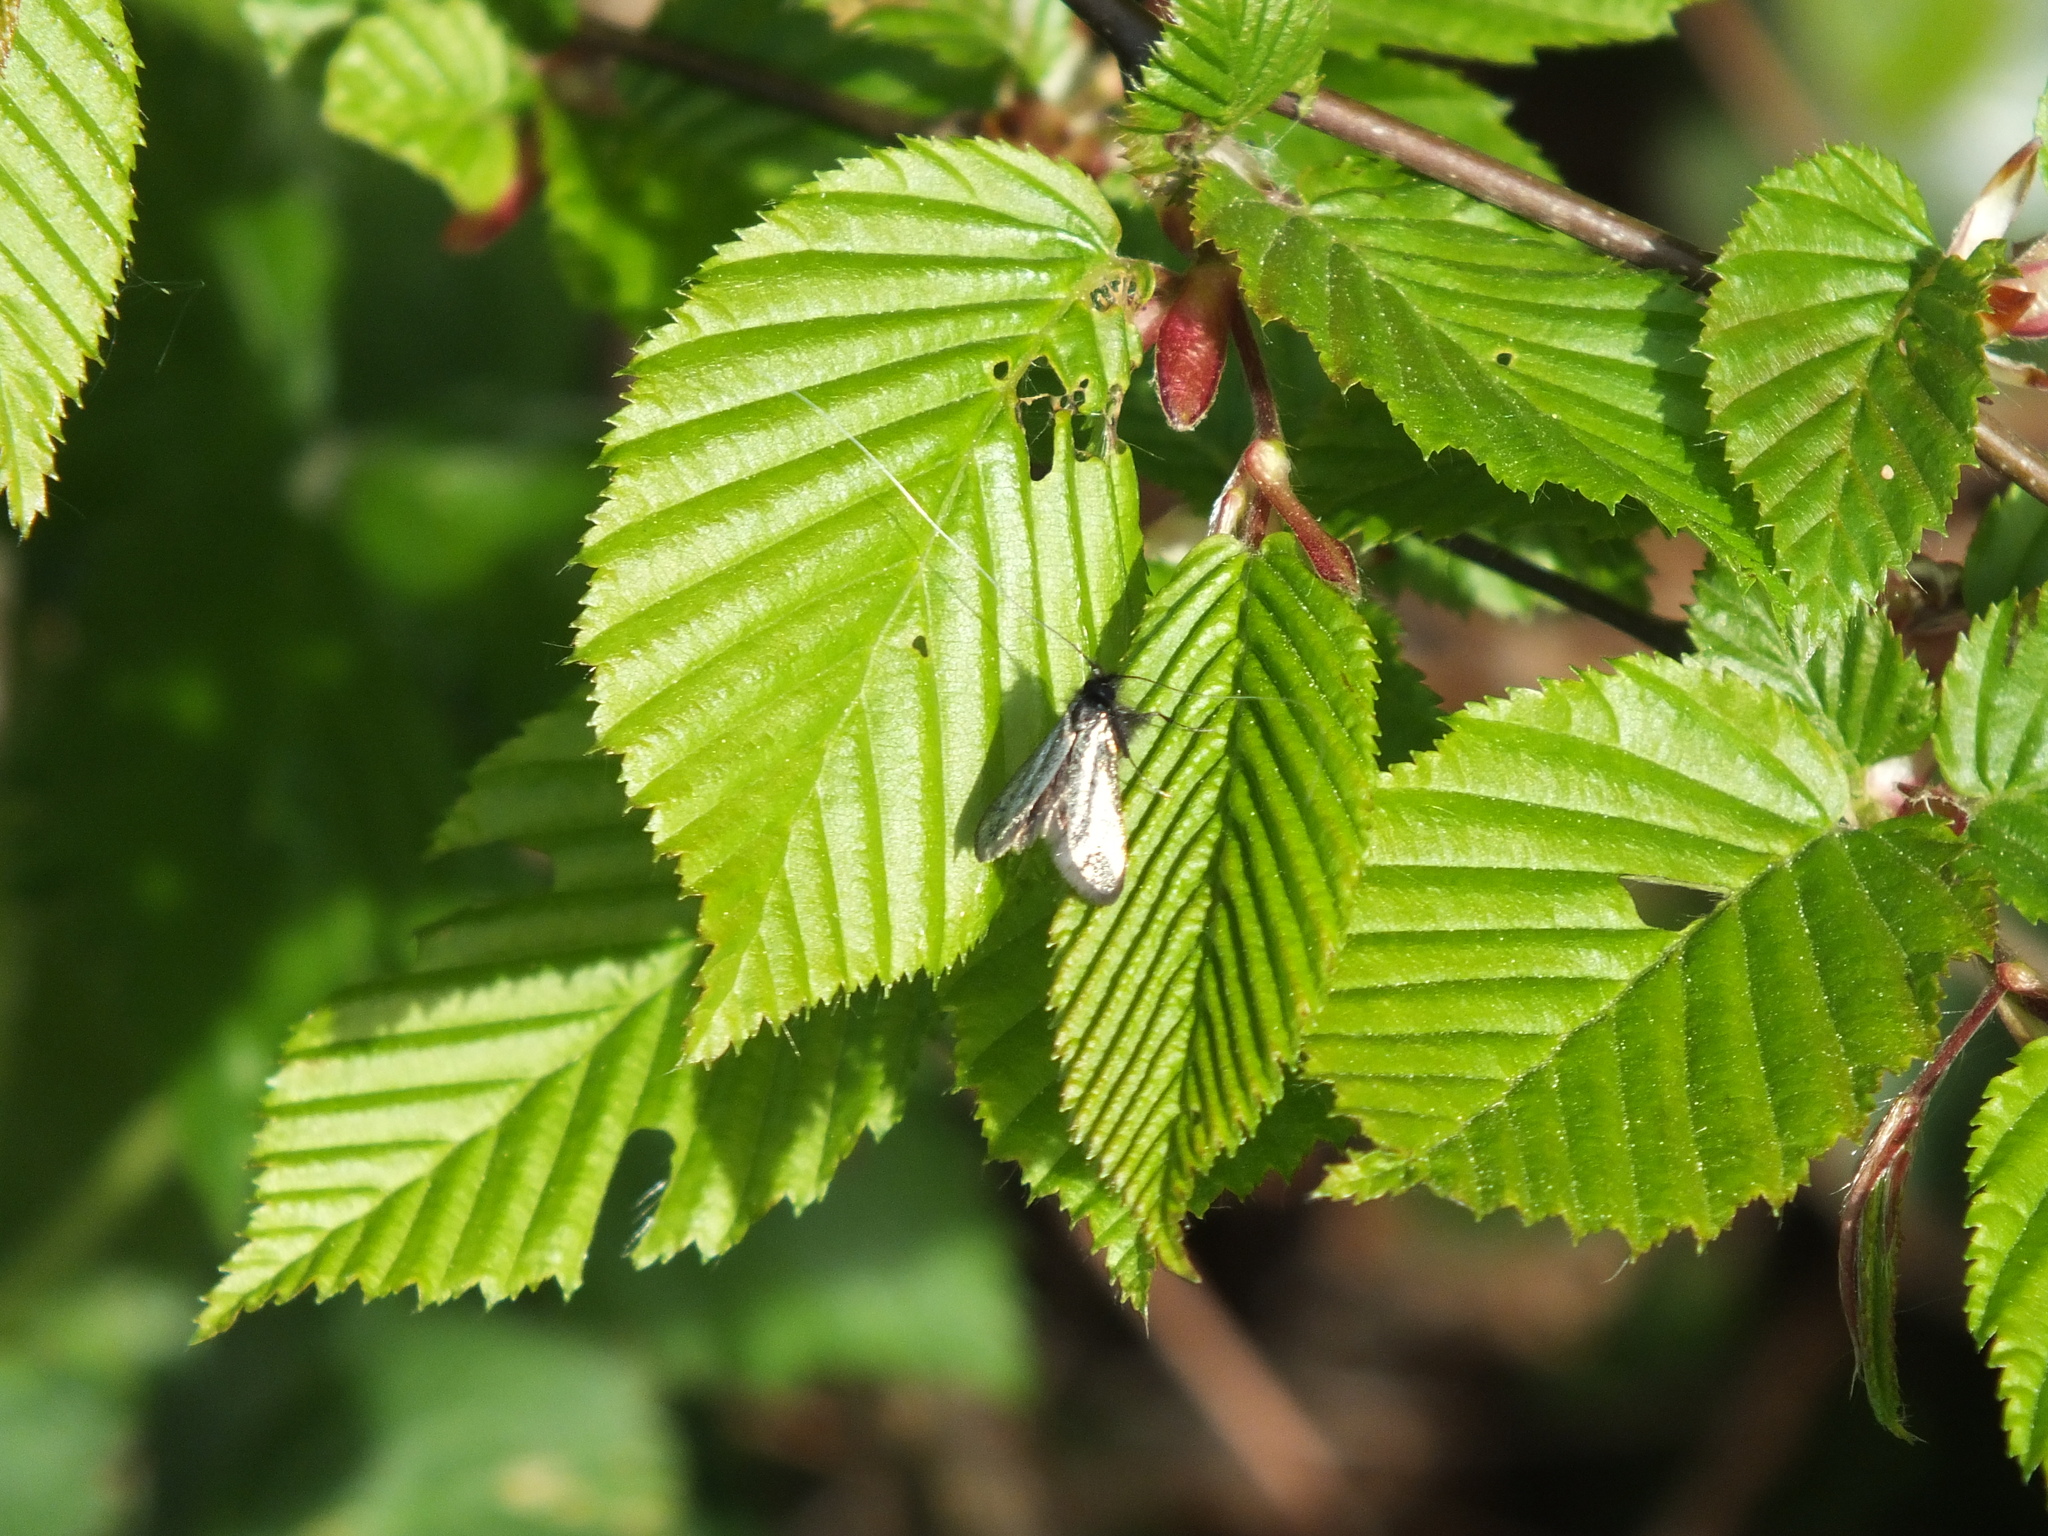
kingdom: Animalia
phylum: Arthropoda
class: Insecta
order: Lepidoptera
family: Adelidae
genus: Adela
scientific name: Adela viridella
